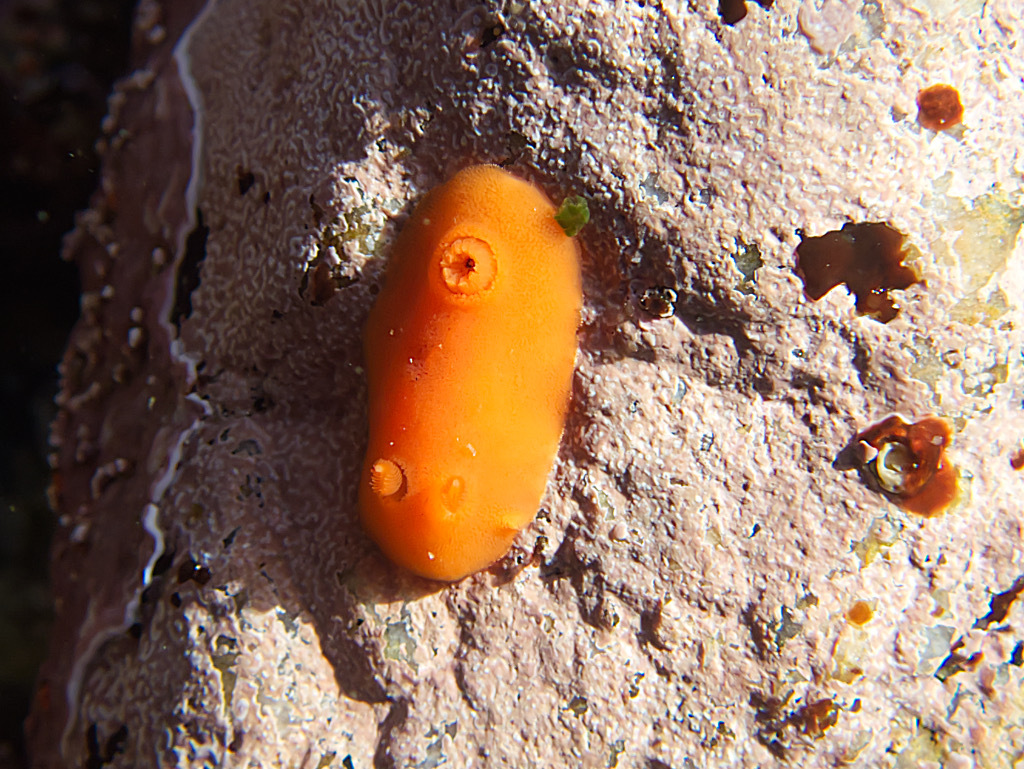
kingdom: Animalia
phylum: Mollusca
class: Gastropoda
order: Nudibranchia
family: Discodorididae
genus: Rostanga
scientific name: Rostanga pulchra
